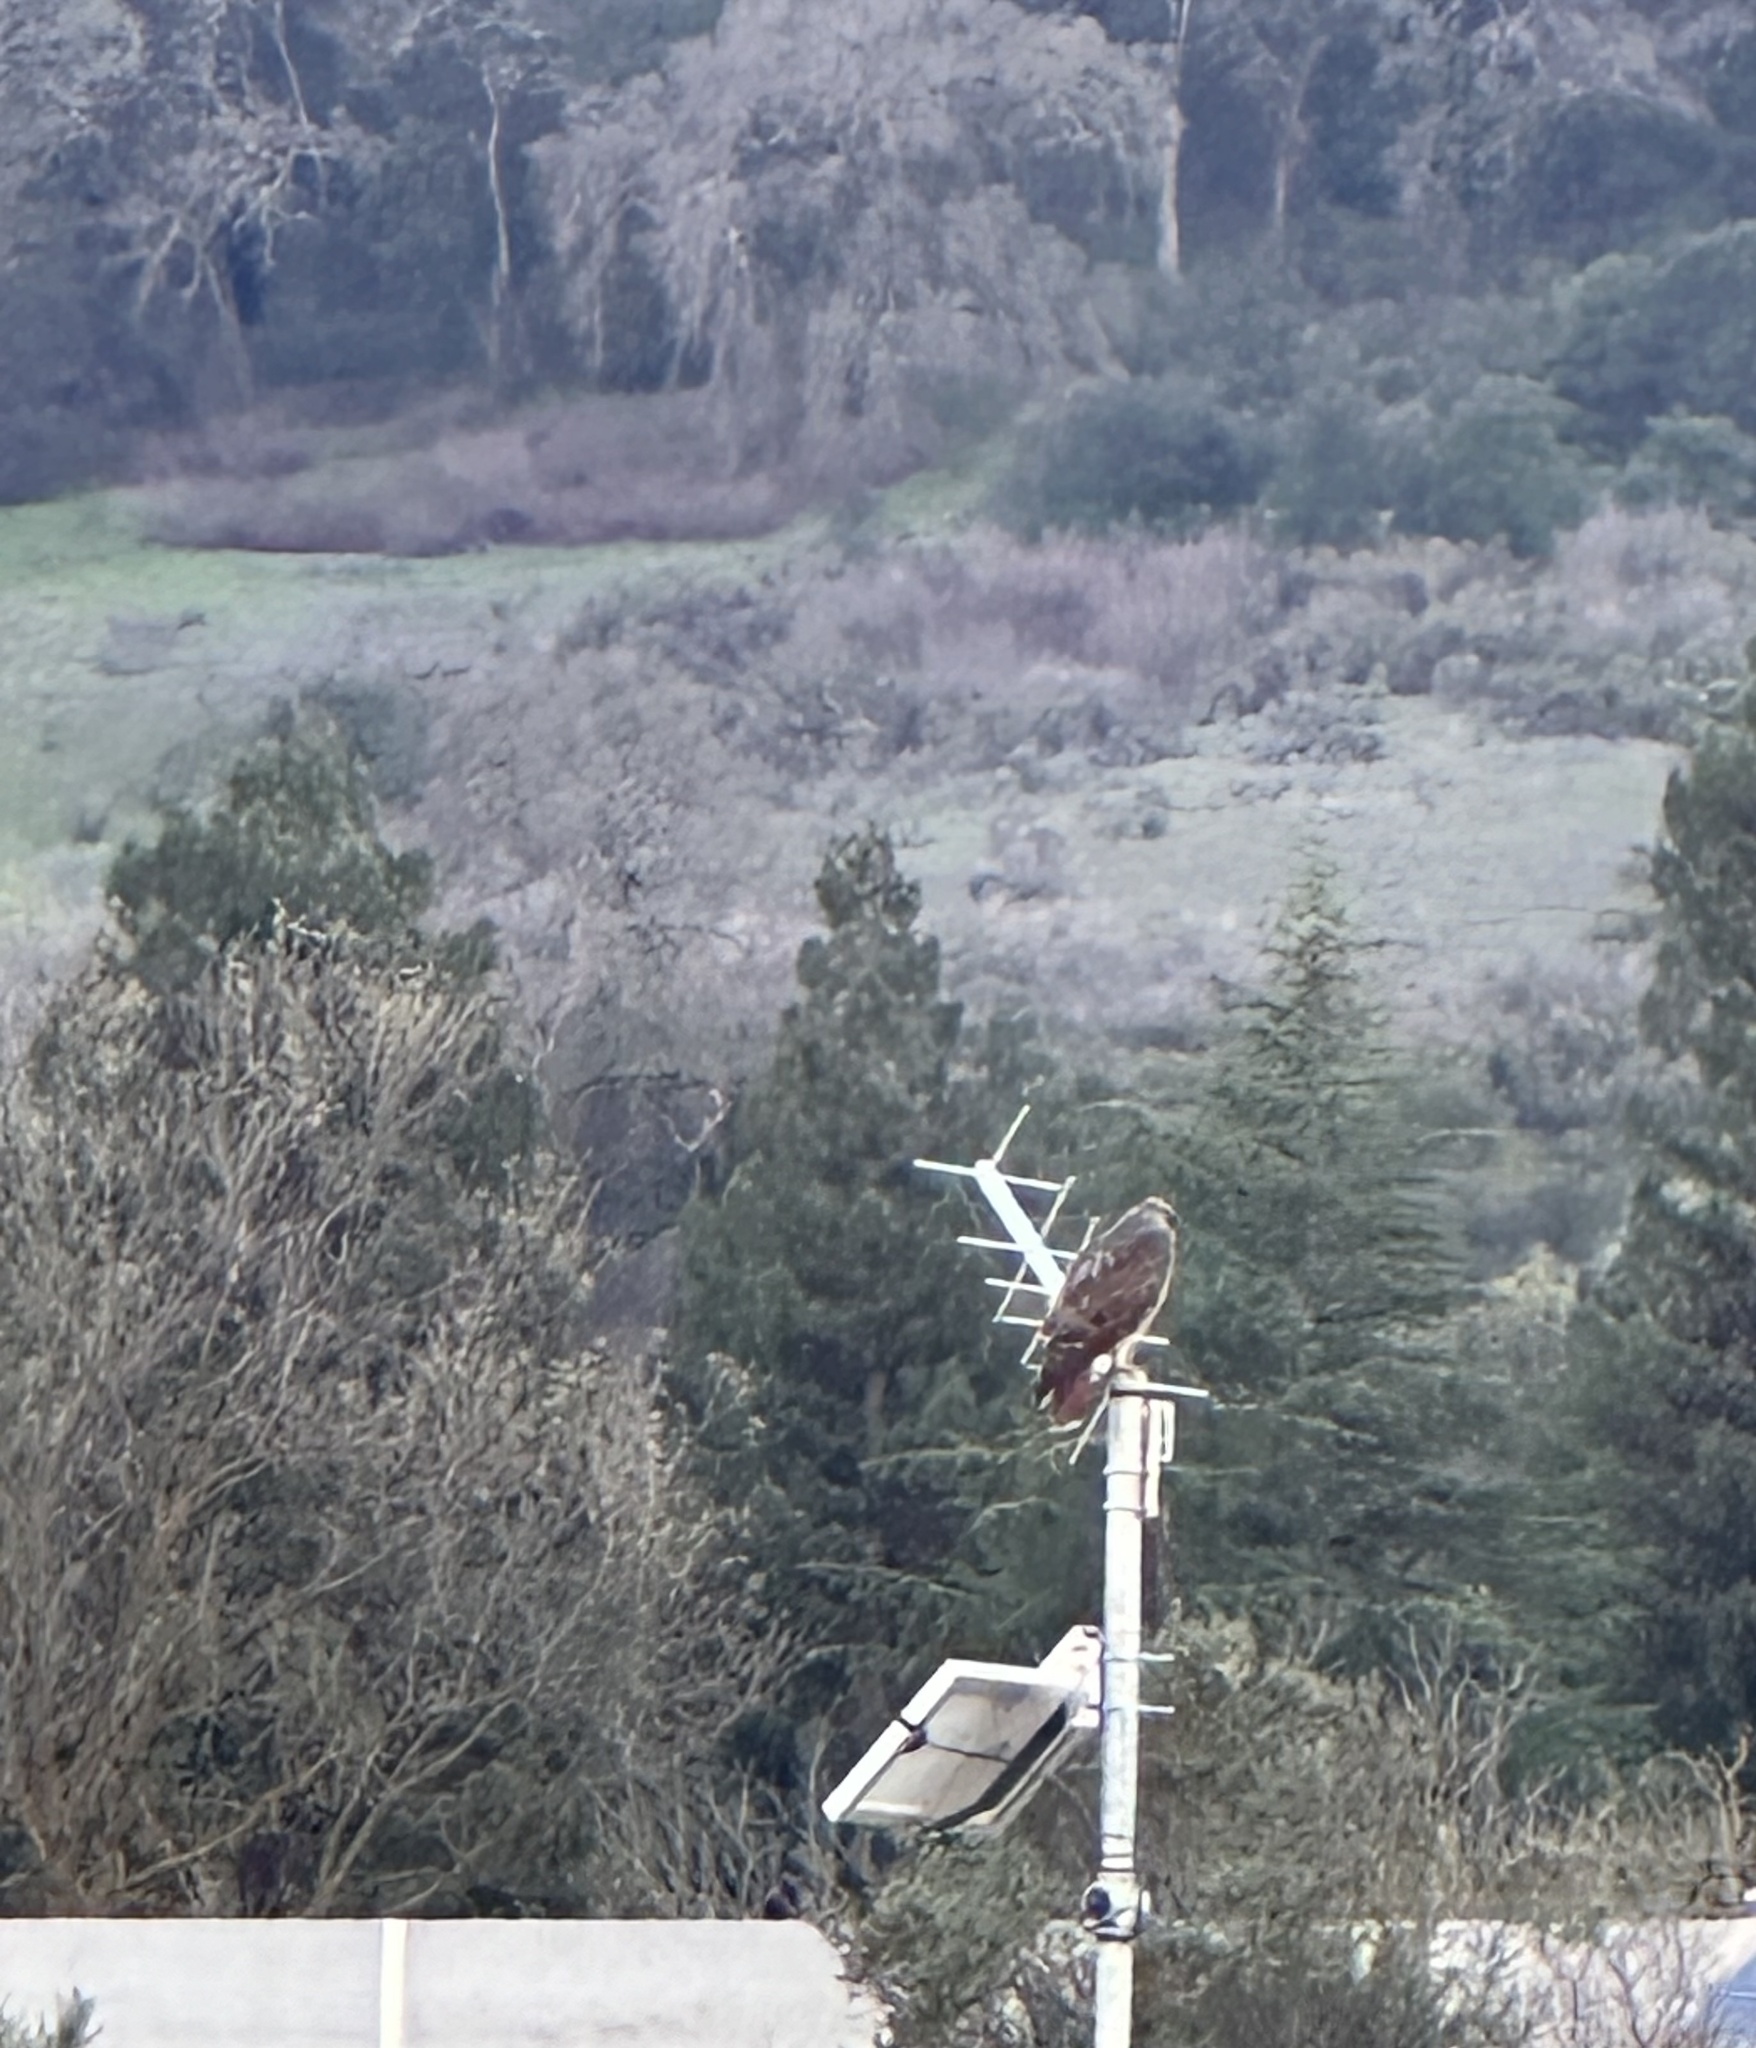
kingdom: Animalia
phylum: Chordata
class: Aves
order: Accipitriformes
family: Accipitridae
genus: Buteo
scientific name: Buteo jamaicensis
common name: Red-tailed hawk
